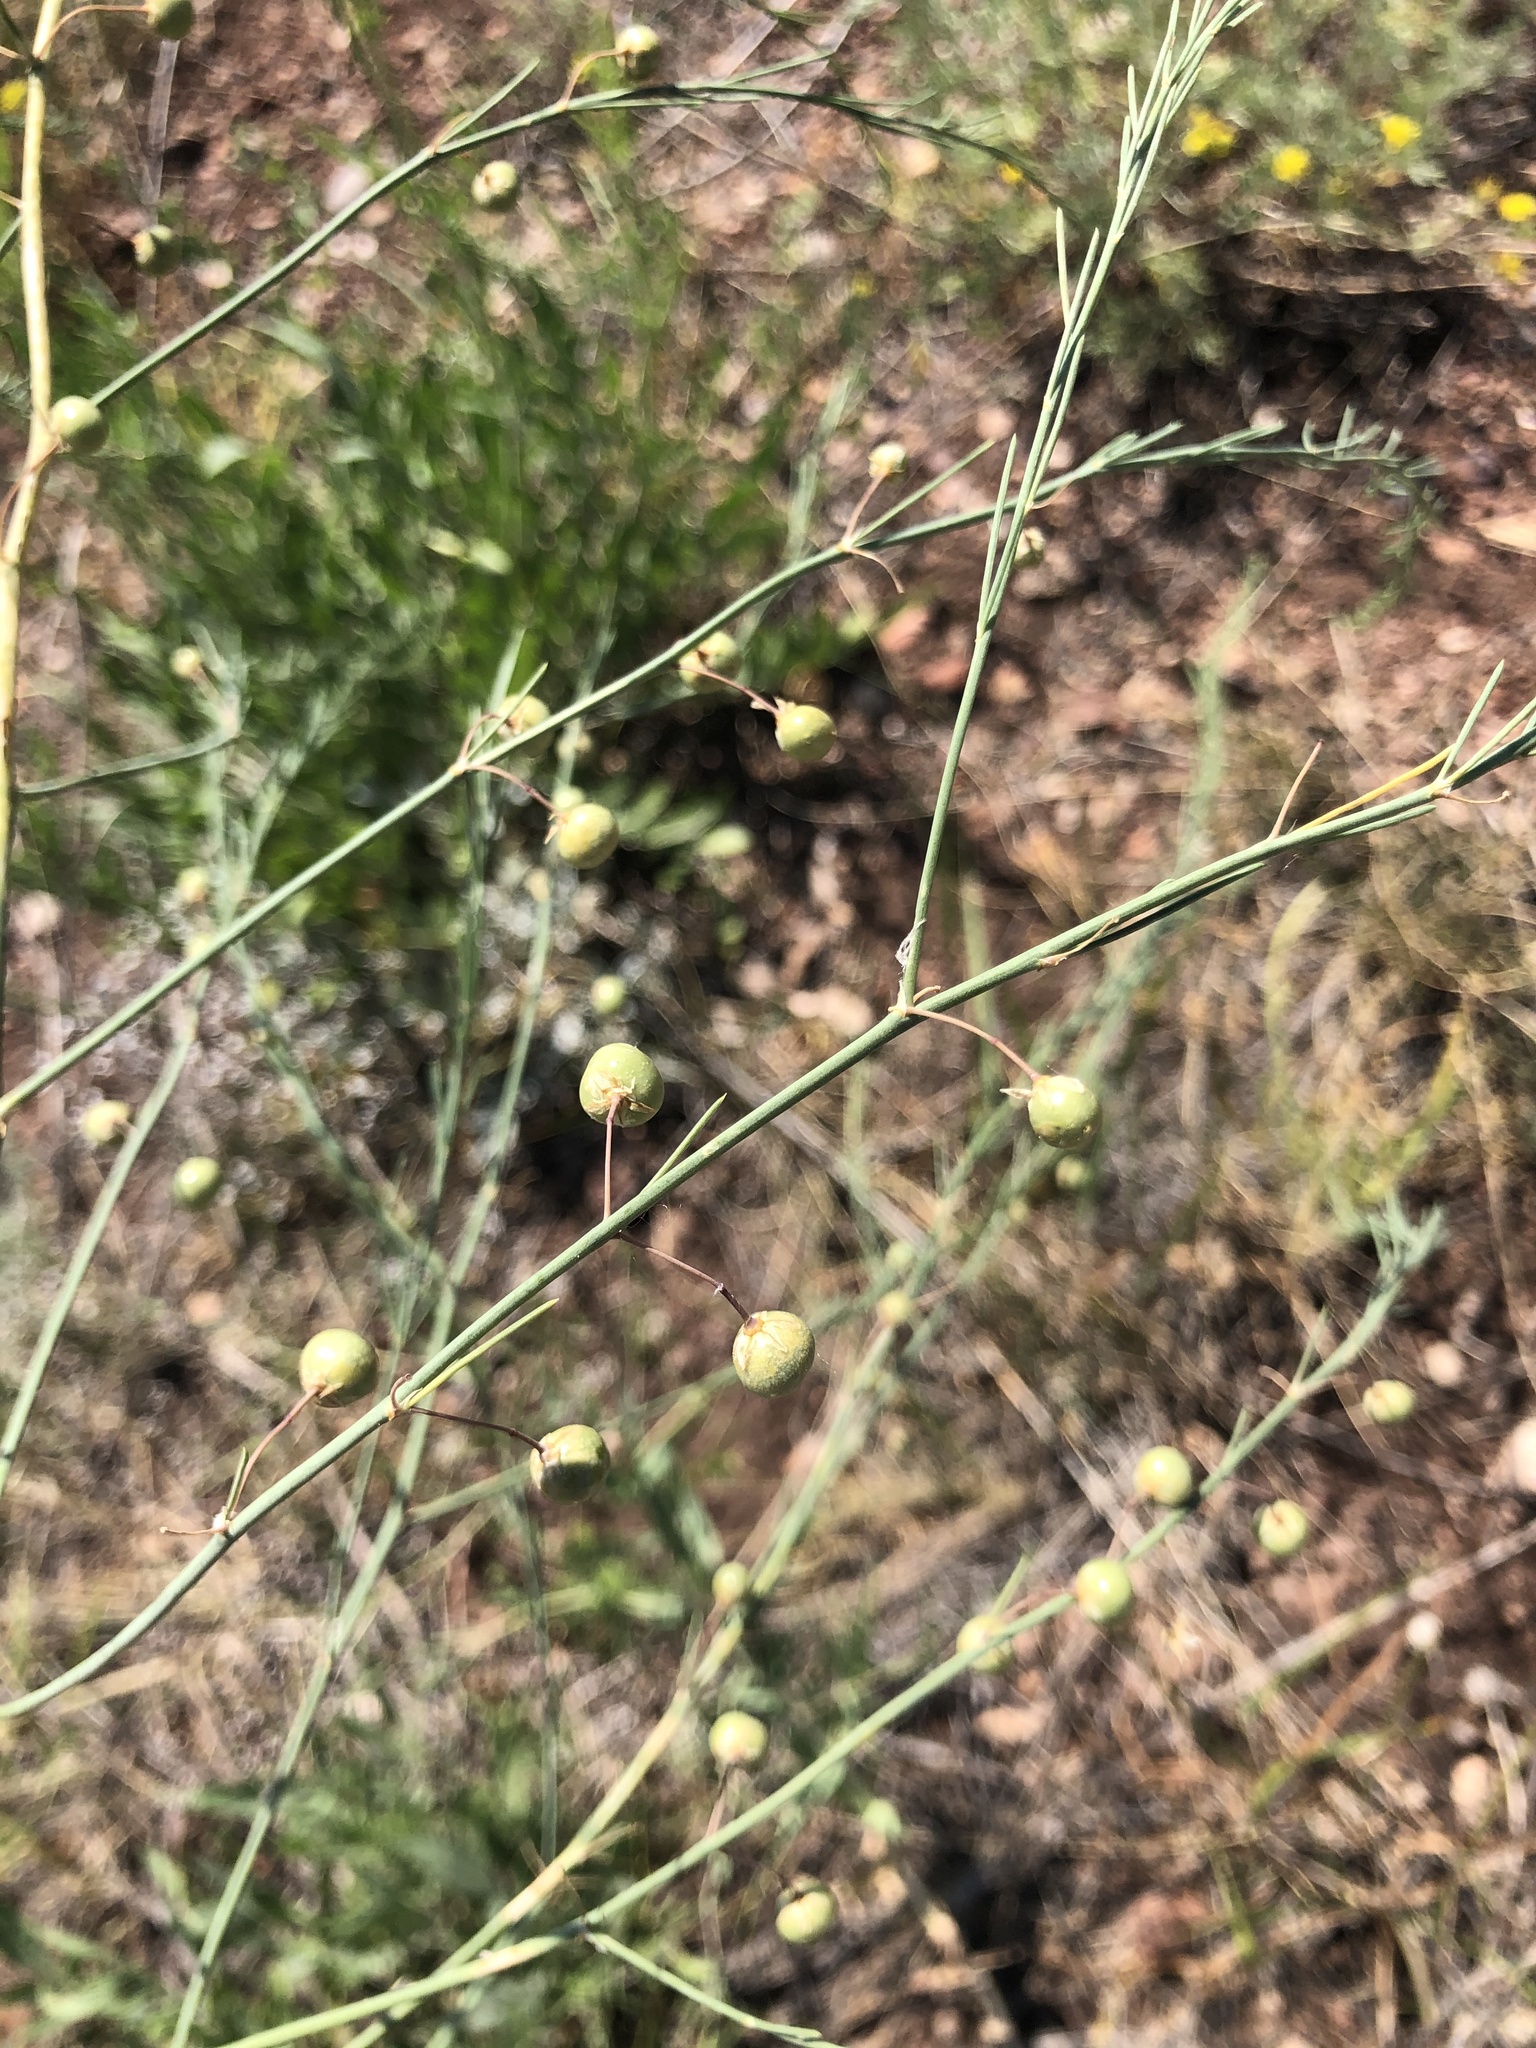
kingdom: Plantae
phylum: Tracheophyta
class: Liliopsida
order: Asparagales
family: Asparagaceae
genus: Asparagus
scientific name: Asparagus officinalis
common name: Garden asparagus
